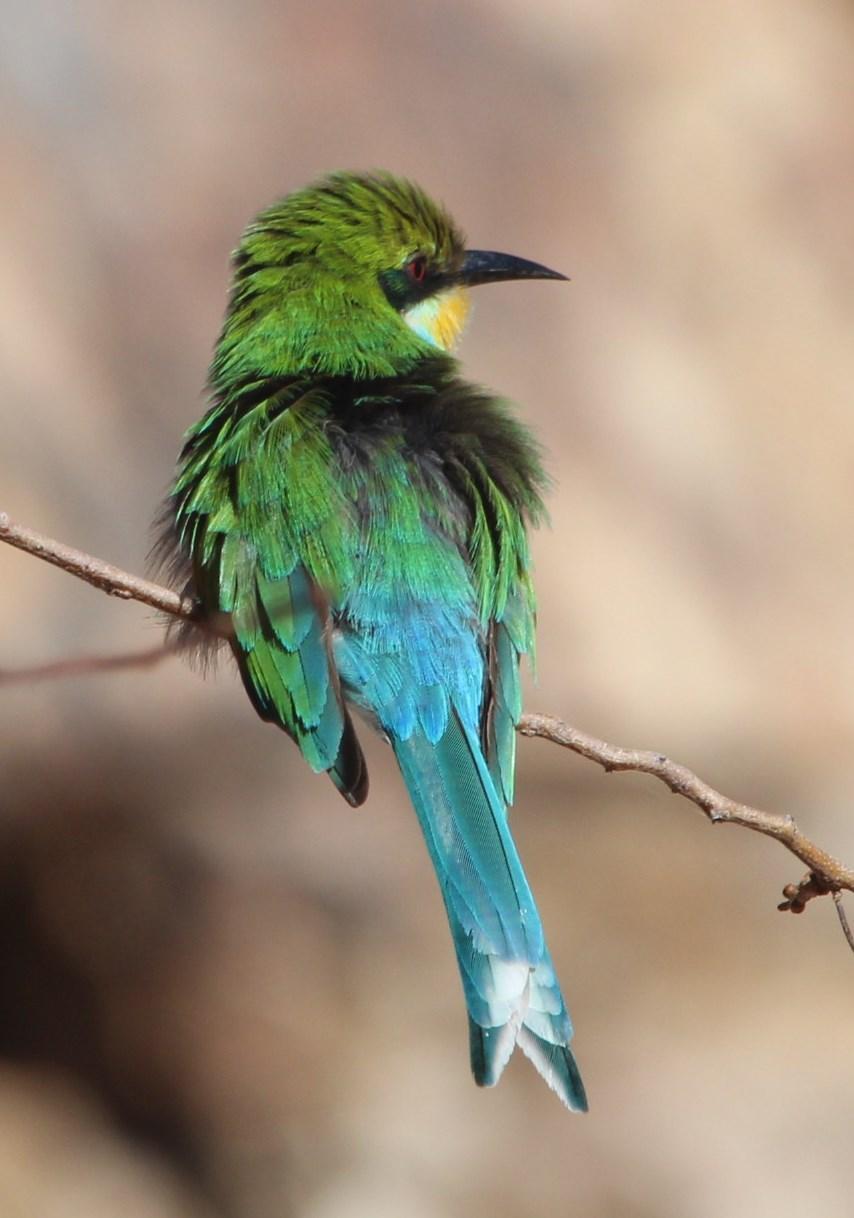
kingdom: Animalia
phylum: Chordata
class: Aves
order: Coraciiformes
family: Meropidae
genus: Merops
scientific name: Merops hirundineus
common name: Swallow-tailed bee-eater
